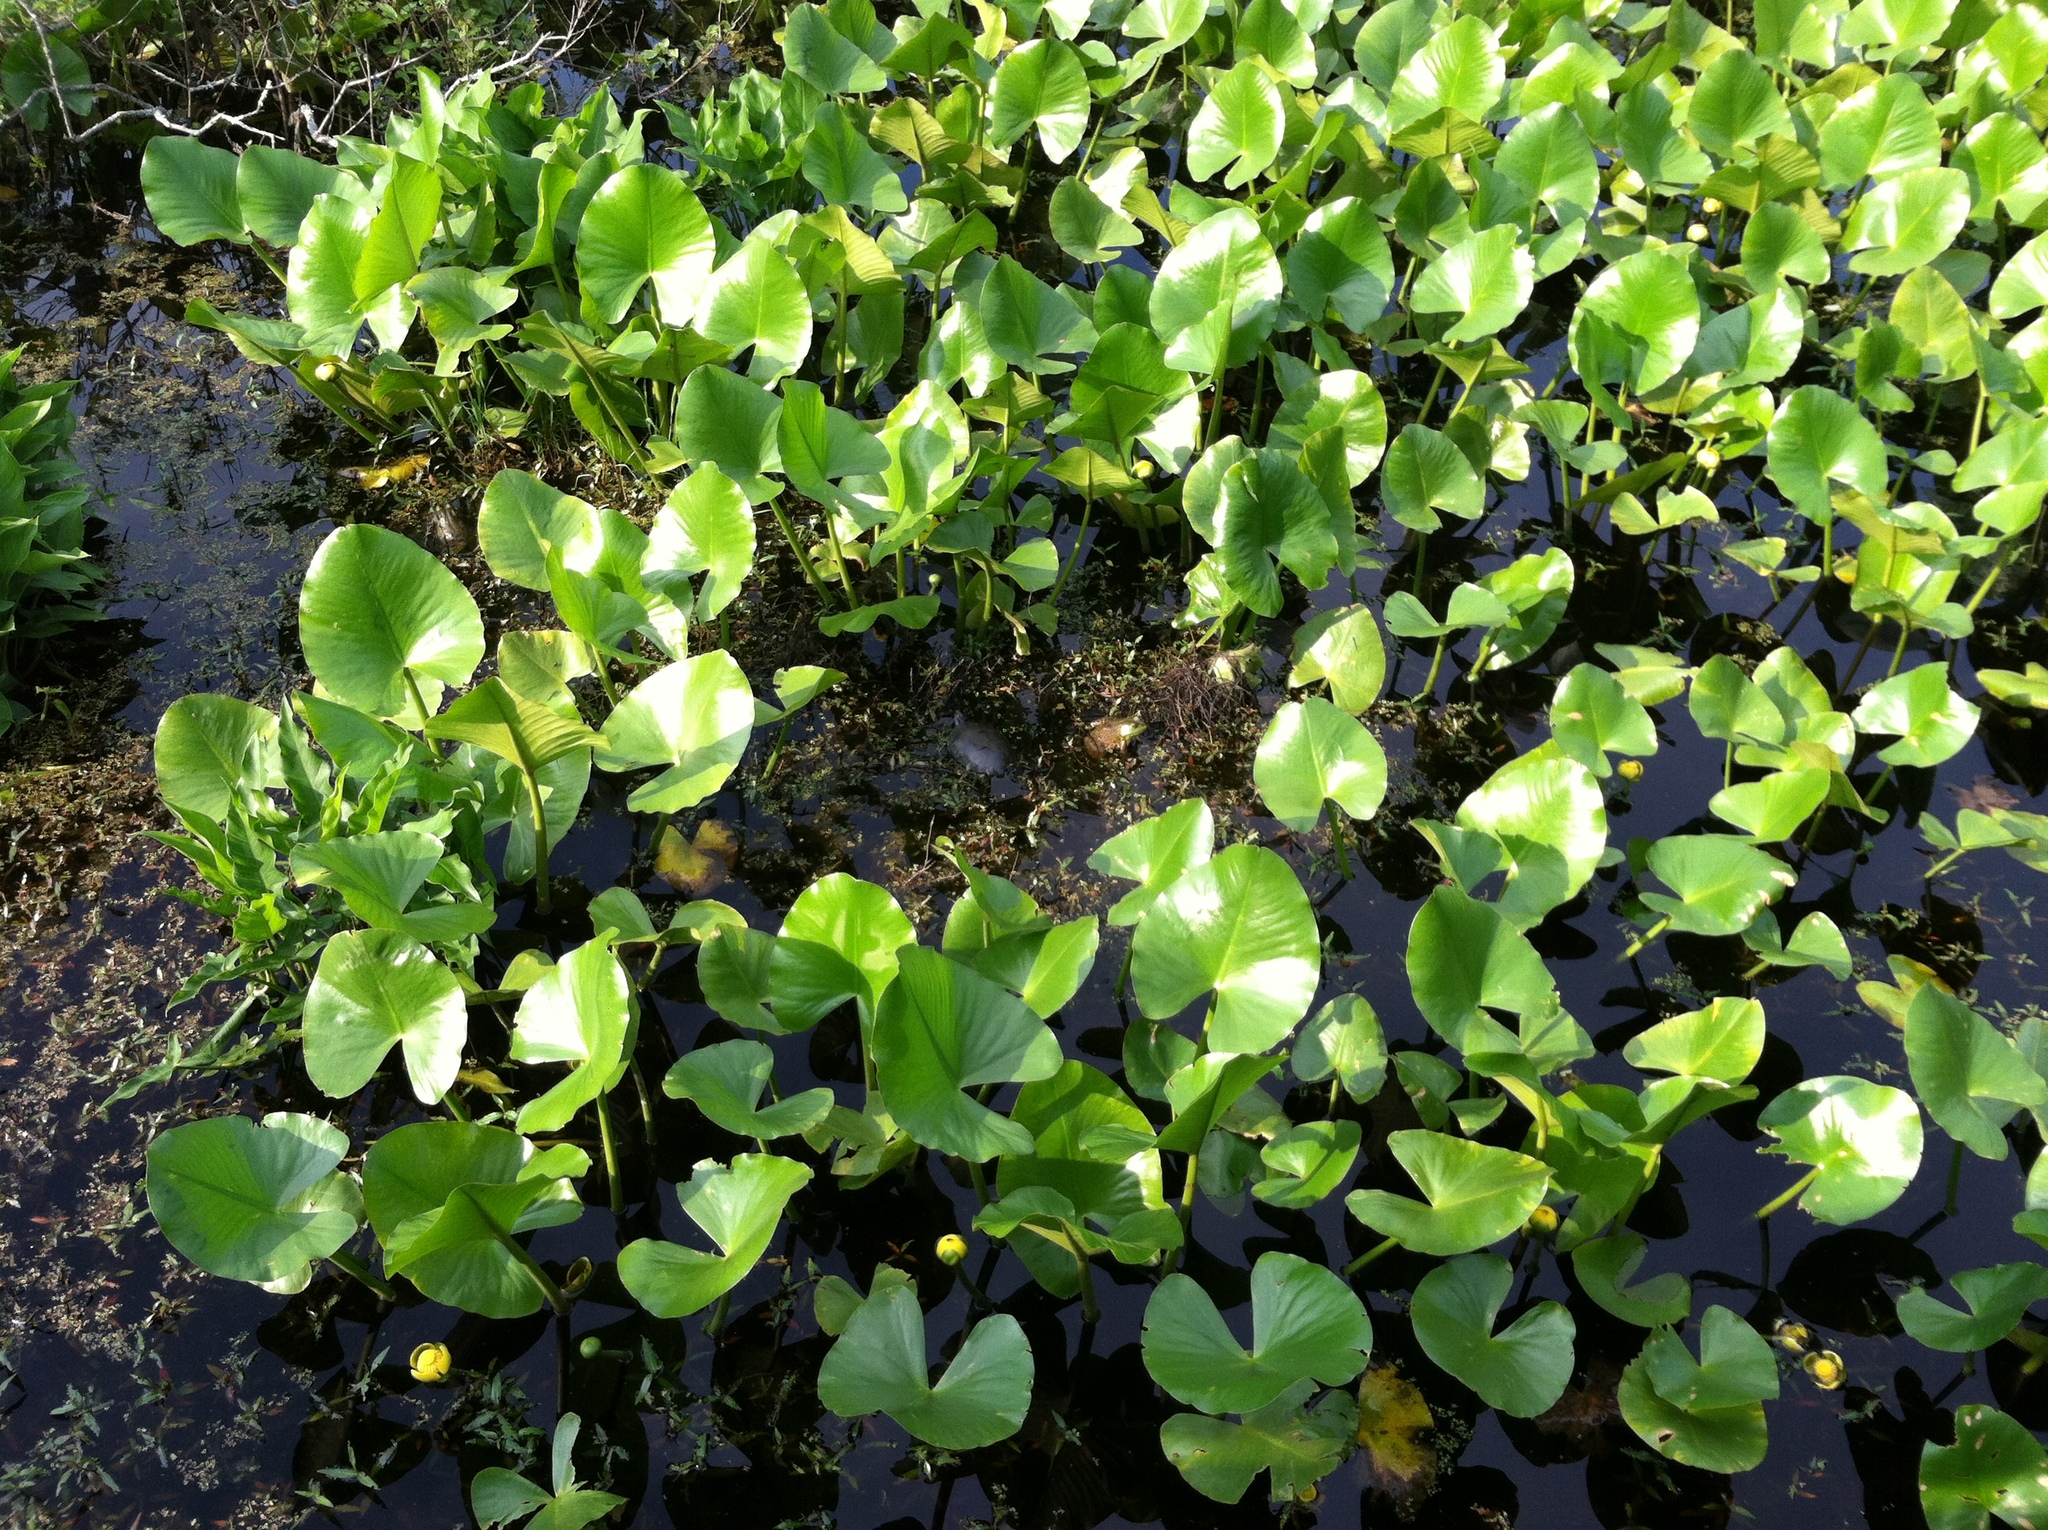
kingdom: Plantae
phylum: Tracheophyta
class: Magnoliopsida
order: Nymphaeales
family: Nymphaeaceae
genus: Nuphar
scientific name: Nuphar advena
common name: Spatter-dock
